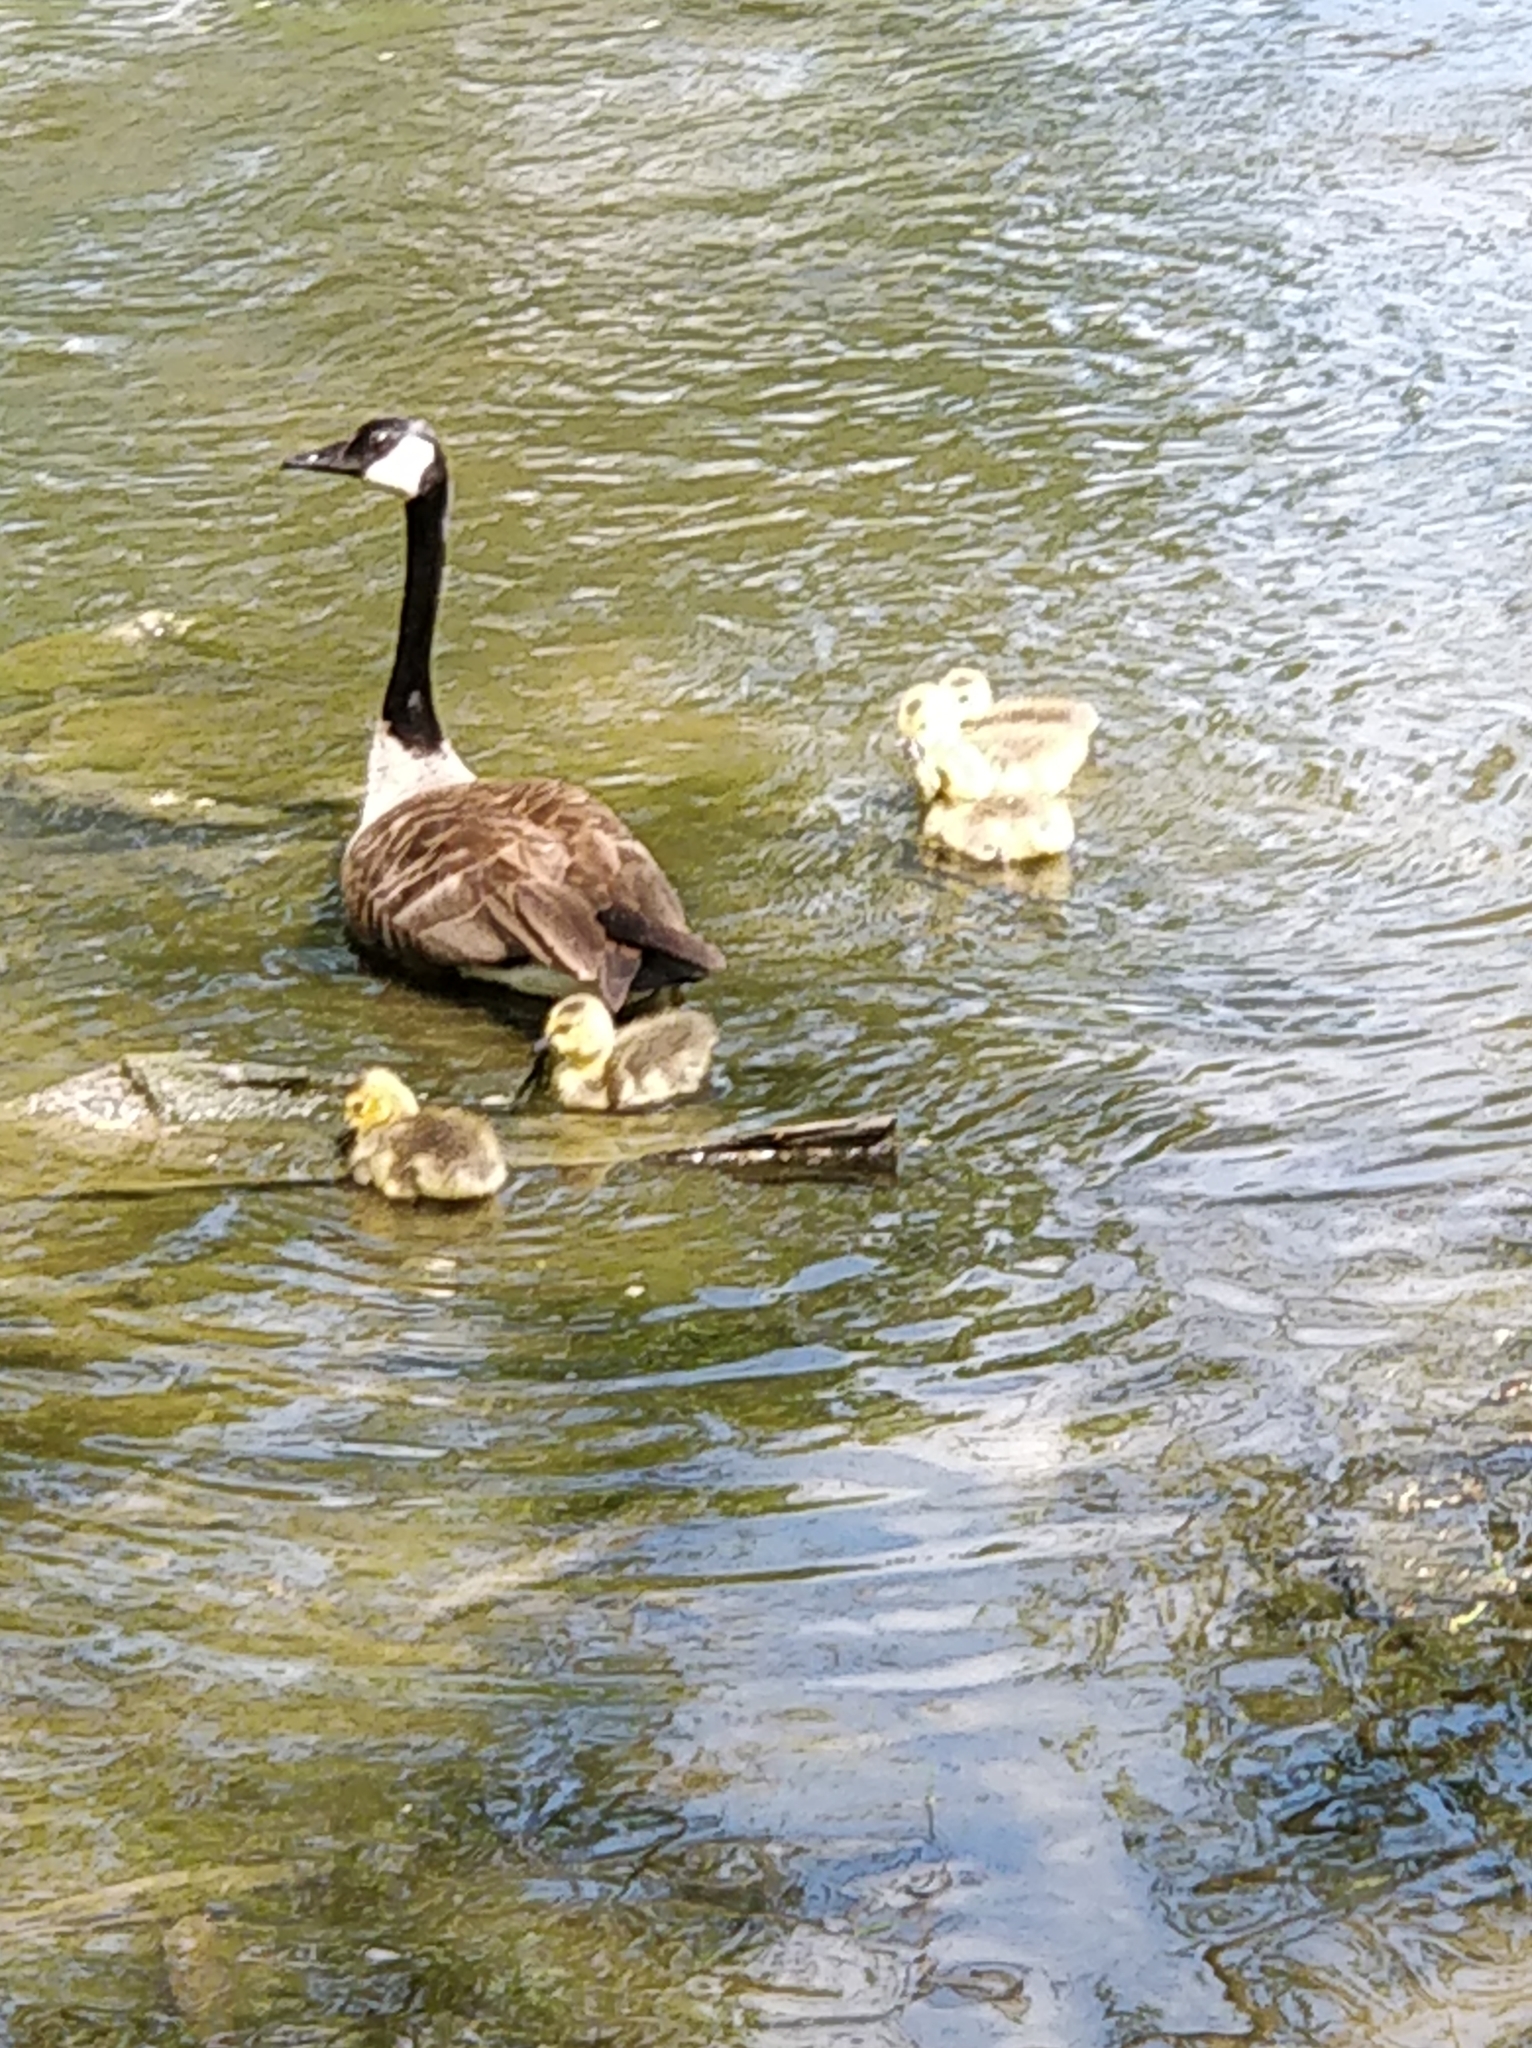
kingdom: Animalia
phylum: Chordata
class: Aves
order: Anseriformes
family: Anatidae
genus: Branta
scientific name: Branta canadensis
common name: Canada goose
